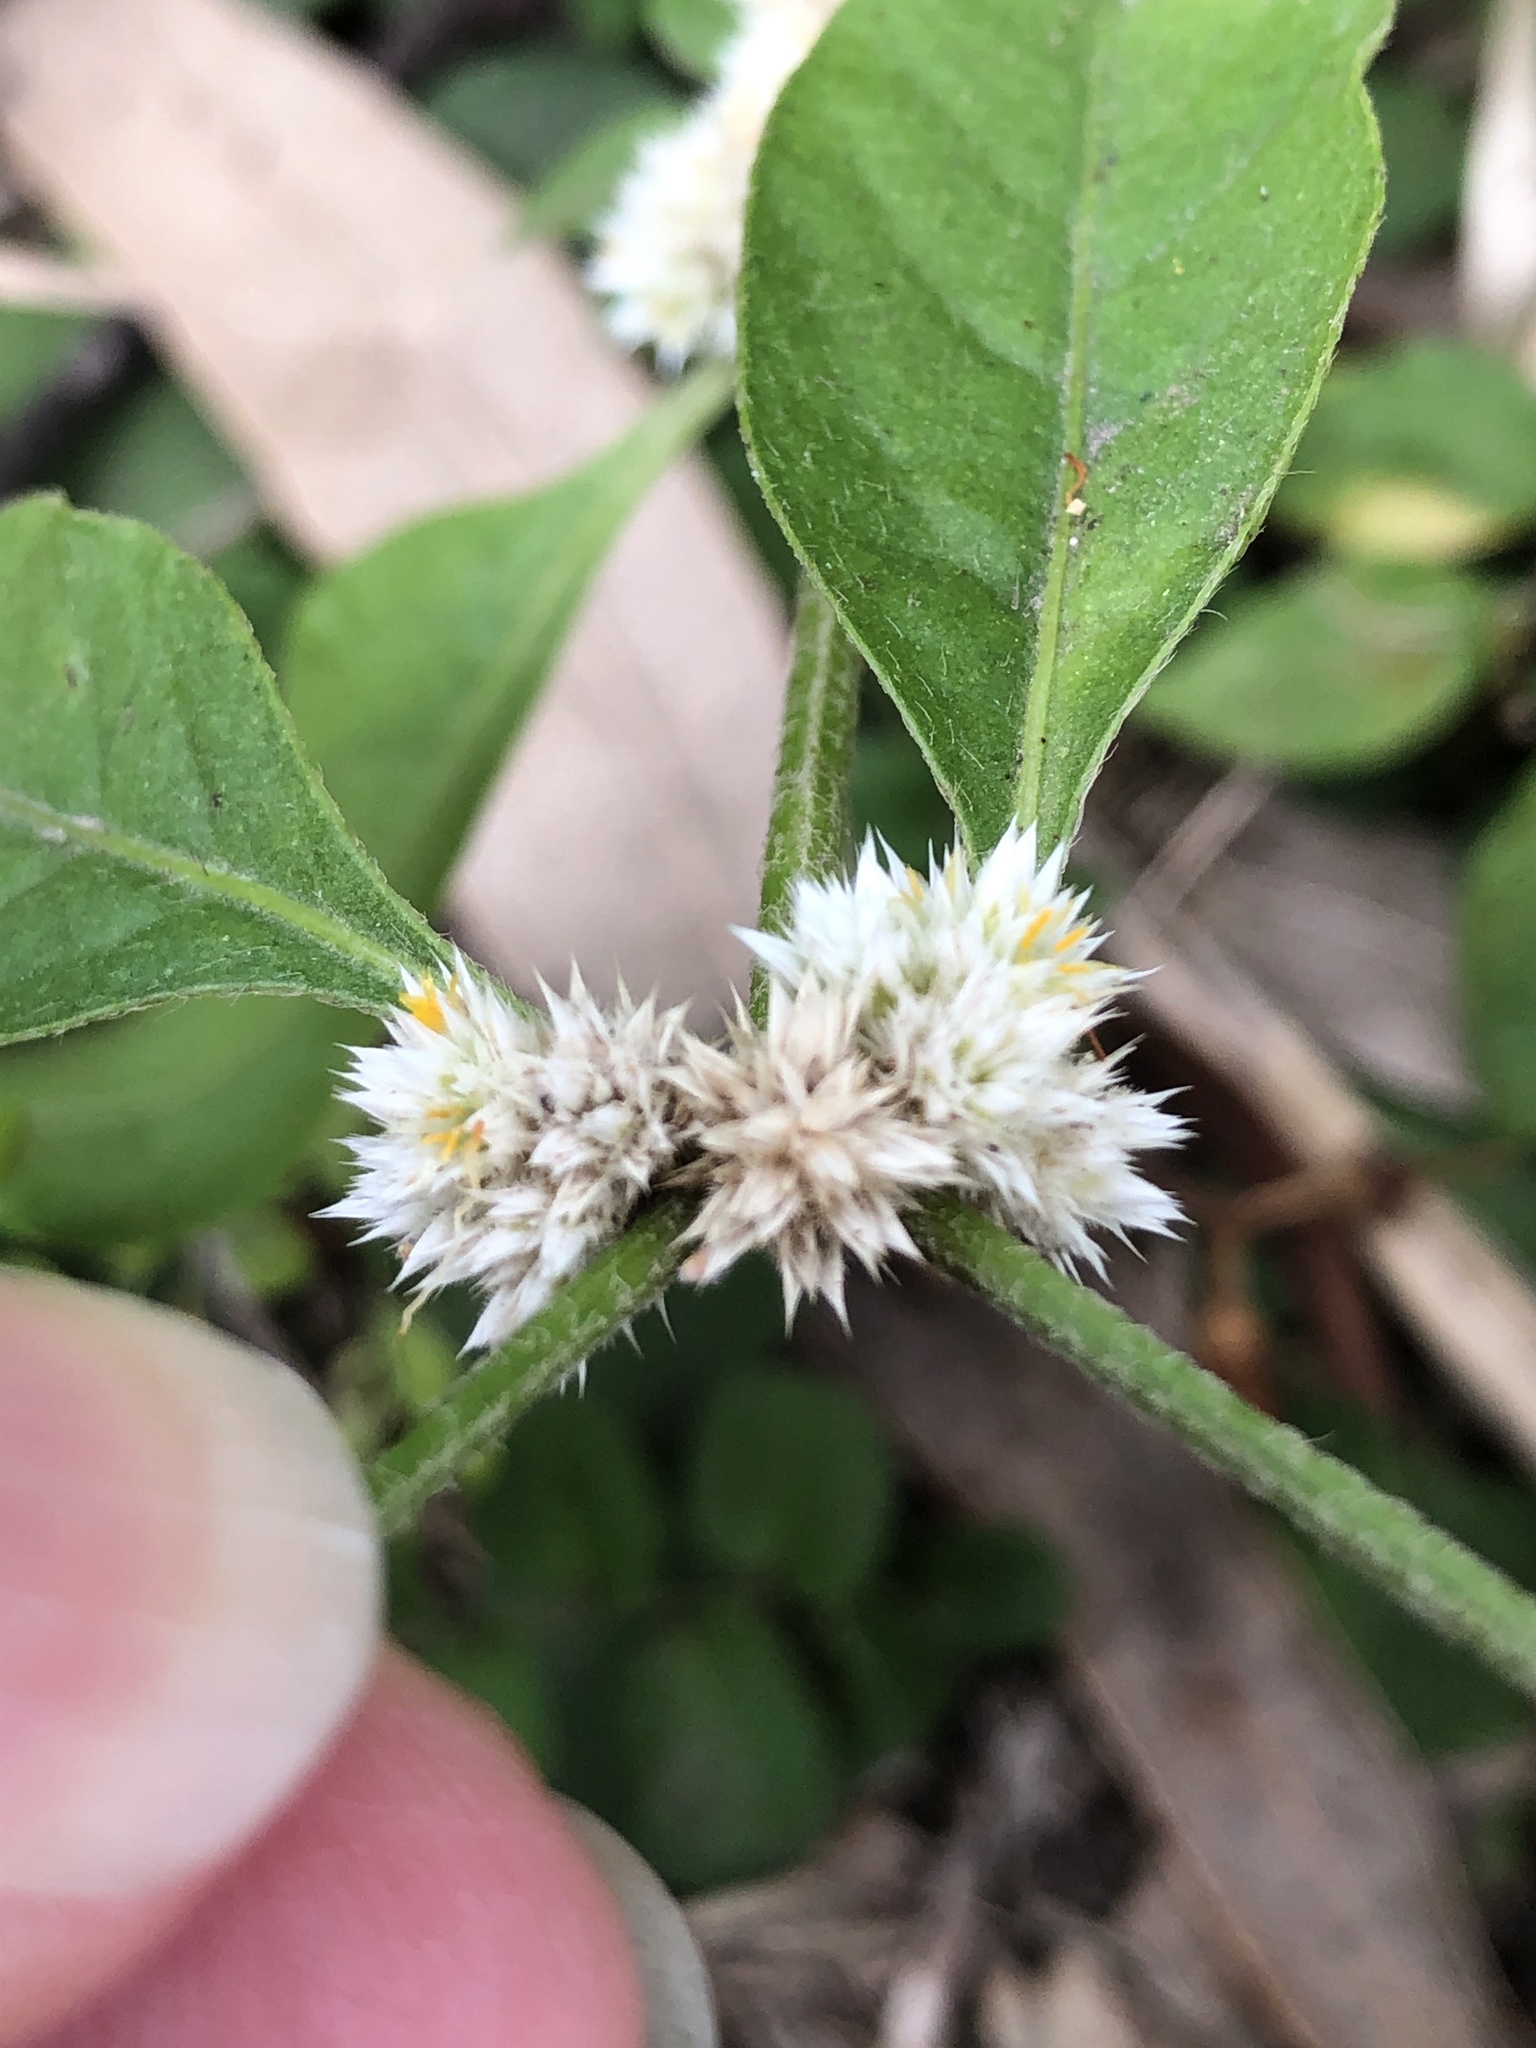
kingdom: Plantae
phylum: Tracheophyta
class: Magnoliopsida
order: Caryophyllales
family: Amaranthaceae
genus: Alternanthera
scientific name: Alternanthera ficoidea
